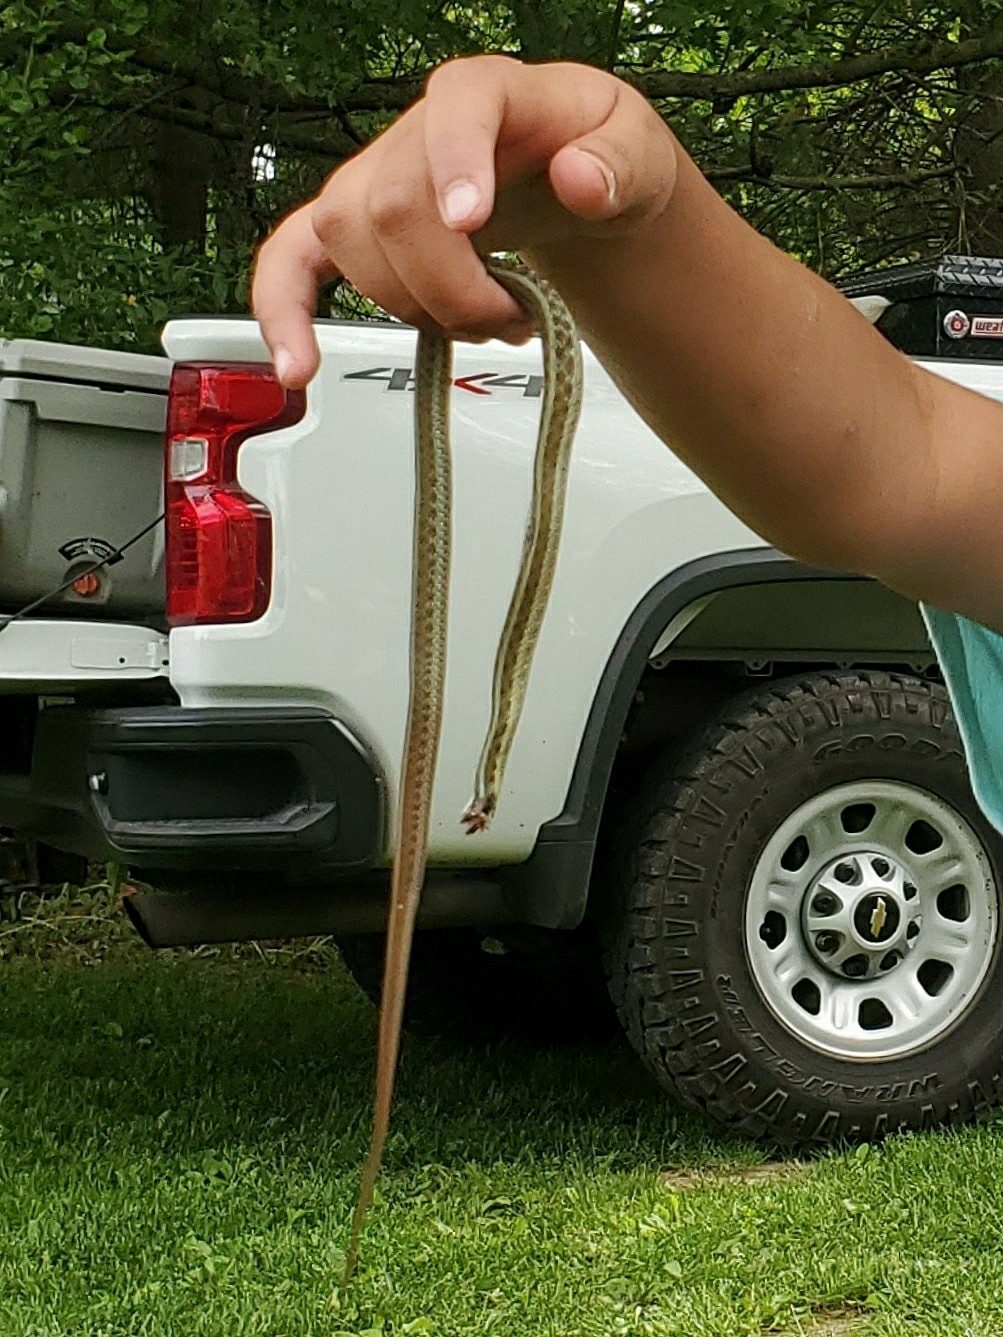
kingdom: Animalia
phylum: Chordata
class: Squamata
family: Colubridae
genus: Thamnophis
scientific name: Thamnophis sirtalis
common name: Common garter snake
